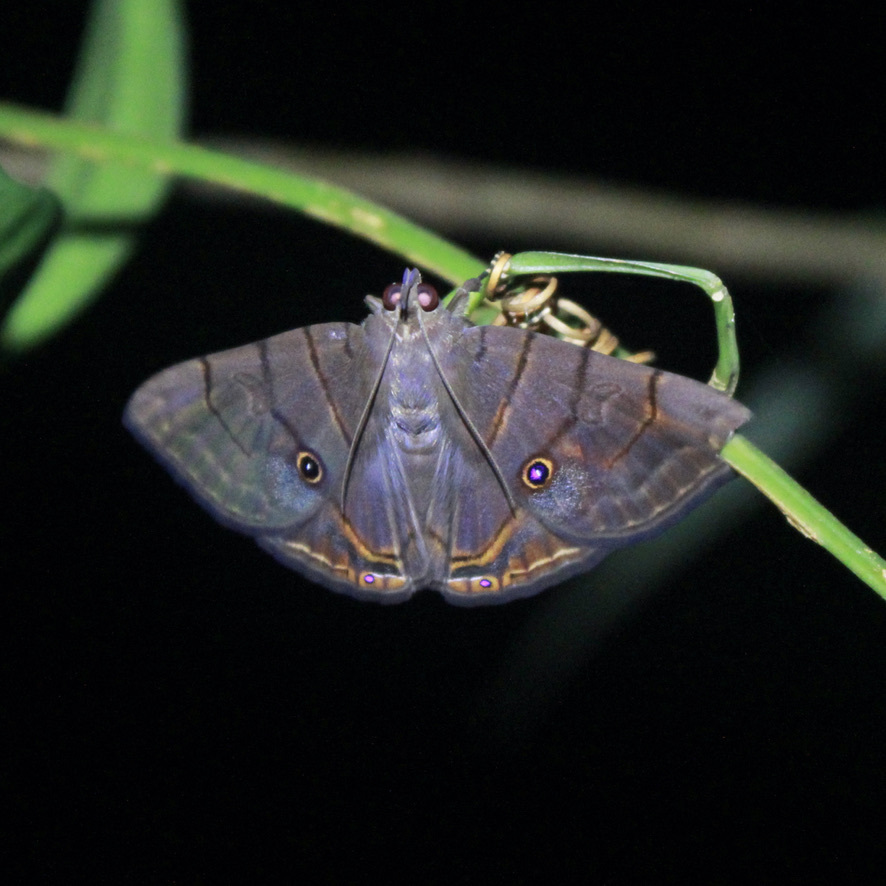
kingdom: Animalia
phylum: Arthropoda
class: Insecta
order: Lepidoptera
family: Erebidae
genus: Dyomyx
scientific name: Dyomyx juno
